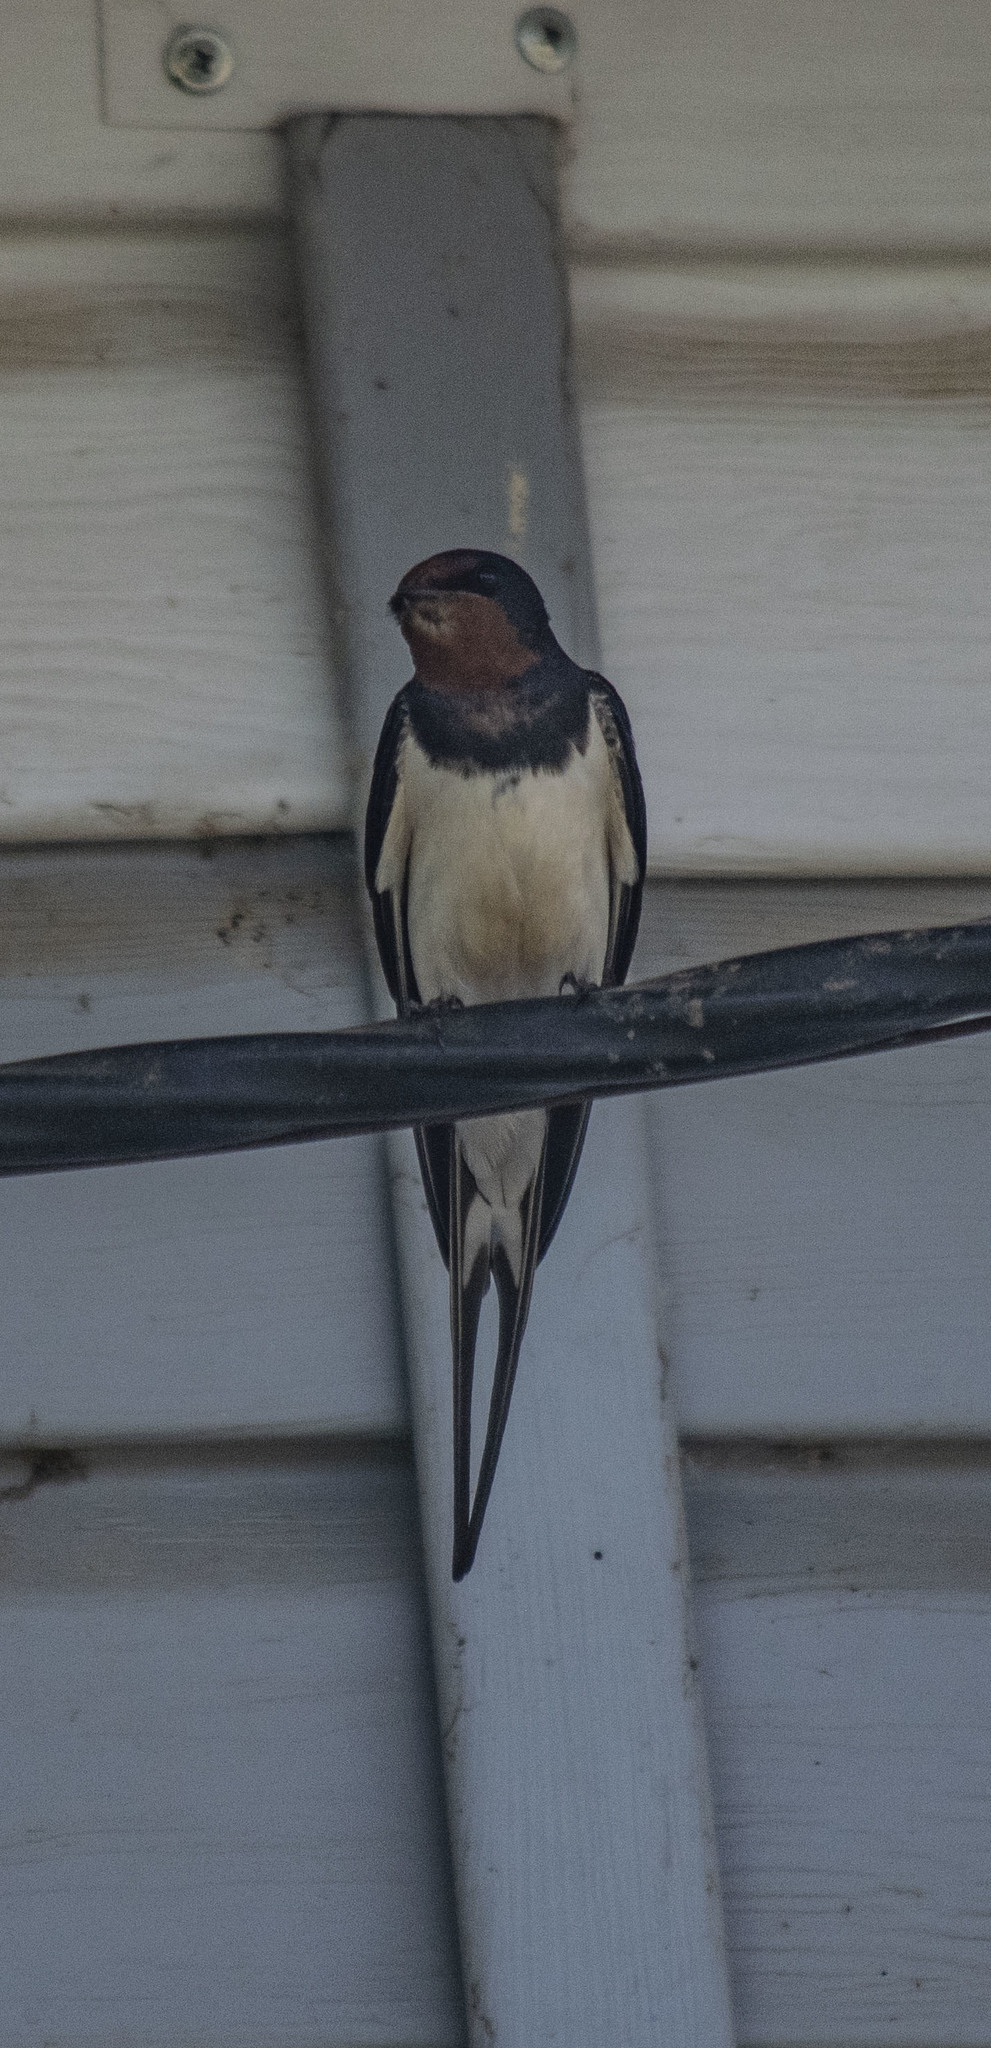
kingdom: Animalia
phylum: Chordata
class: Aves
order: Passeriformes
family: Hirundinidae
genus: Hirundo
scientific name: Hirundo rustica
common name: Barn swallow
